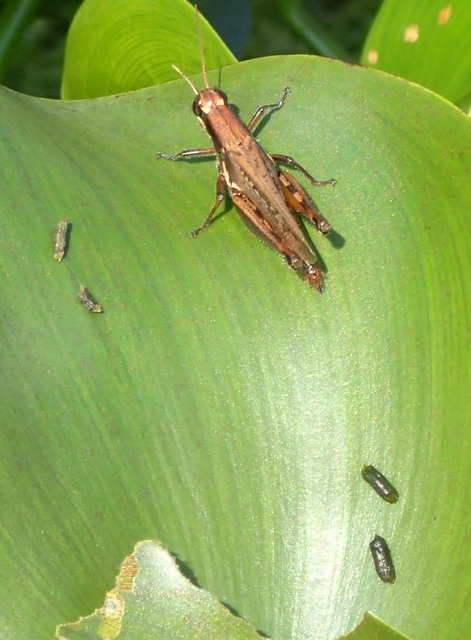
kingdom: Animalia
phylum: Arthropoda
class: Insecta
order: Orthoptera
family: Acrididae
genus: Paroxya
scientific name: Paroxya atlantica
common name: Atlantic grasshopper
